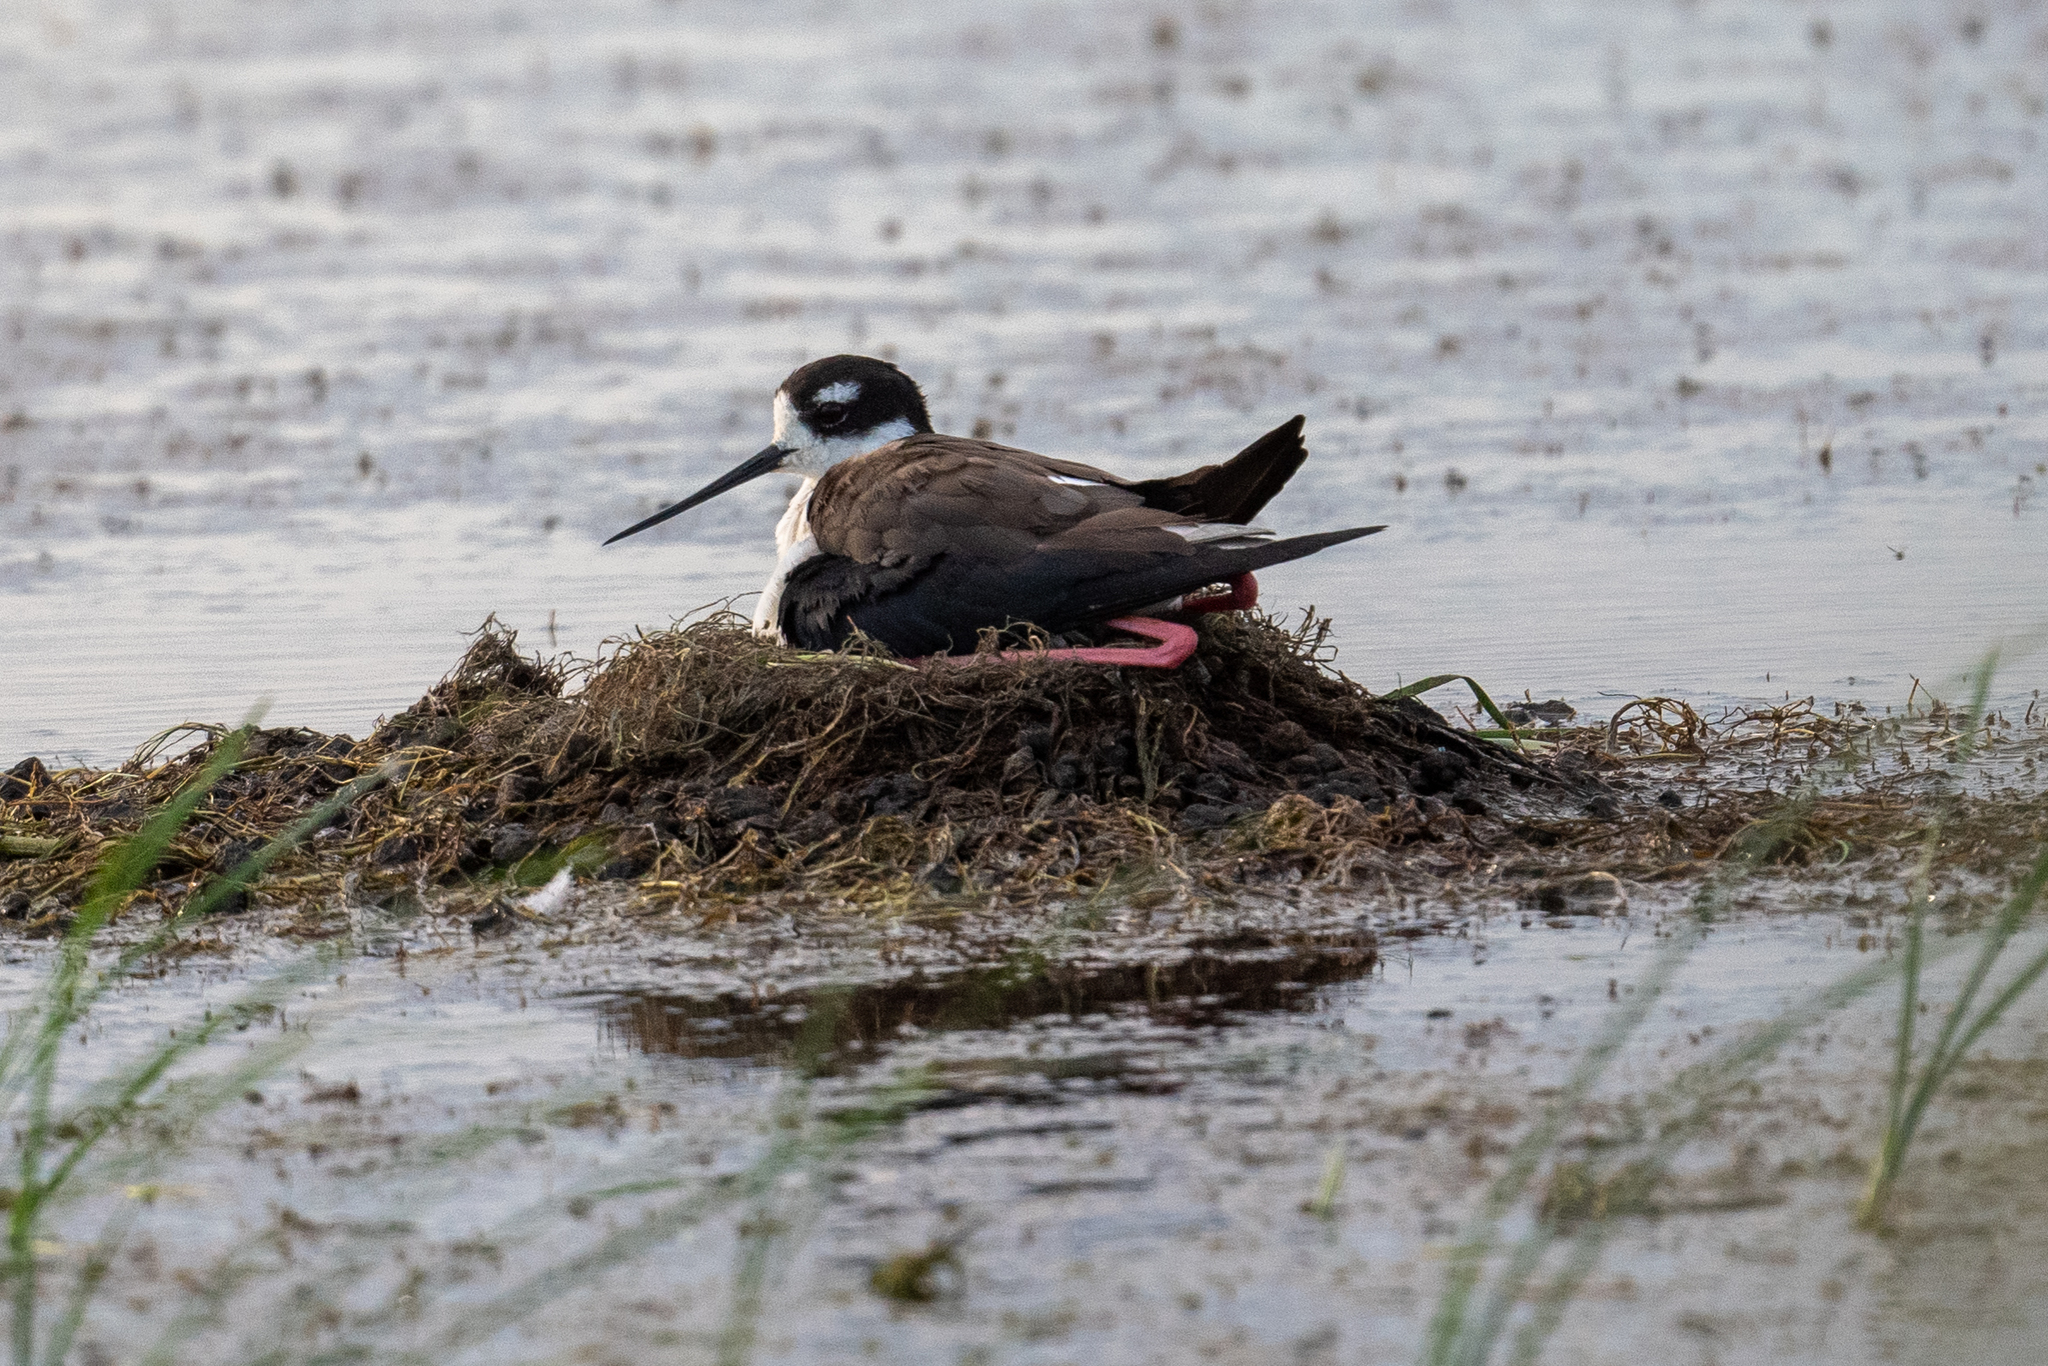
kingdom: Animalia
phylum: Chordata
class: Aves
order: Charadriiformes
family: Recurvirostridae
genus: Himantopus
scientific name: Himantopus mexicanus
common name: Black-necked stilt
